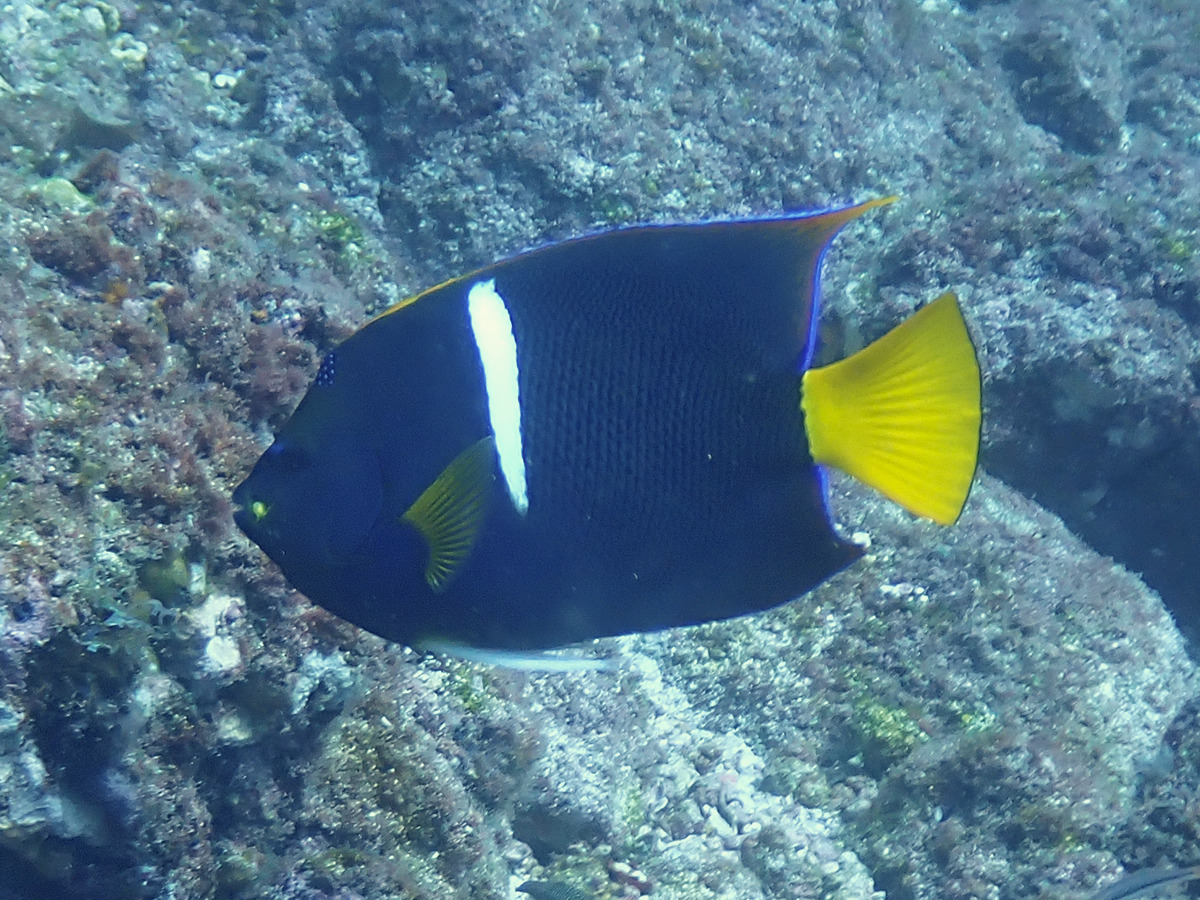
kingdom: Animalia
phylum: Chordata
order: Perciformes
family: Pomacanthidae
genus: Holacanthus
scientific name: Holacanthus passer
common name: King angelfish
